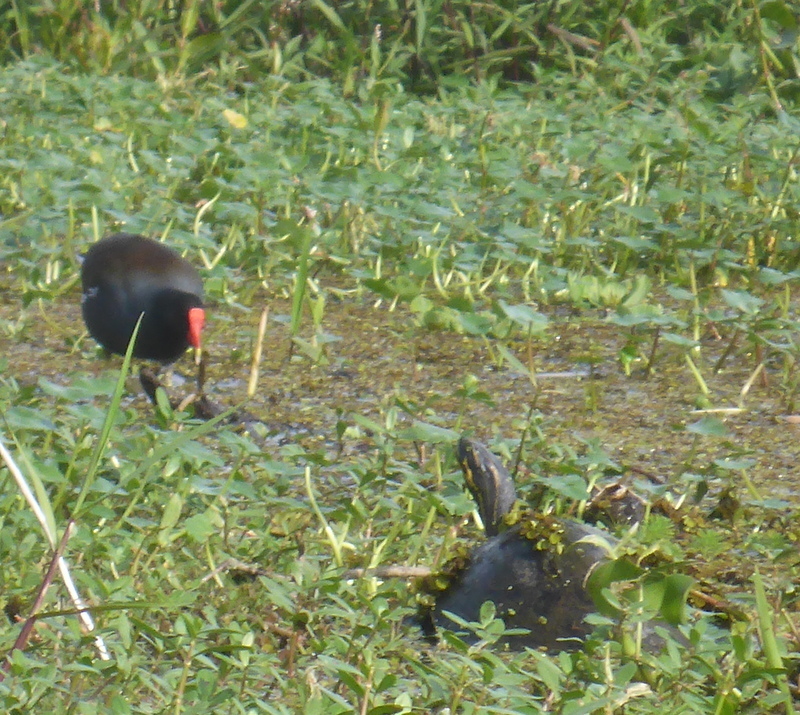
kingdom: Animalia
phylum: Chordata
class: Aves
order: Gruiformes
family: Rallidae
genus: Gallinula
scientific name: Gallinula chloropus
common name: Common moorhen
